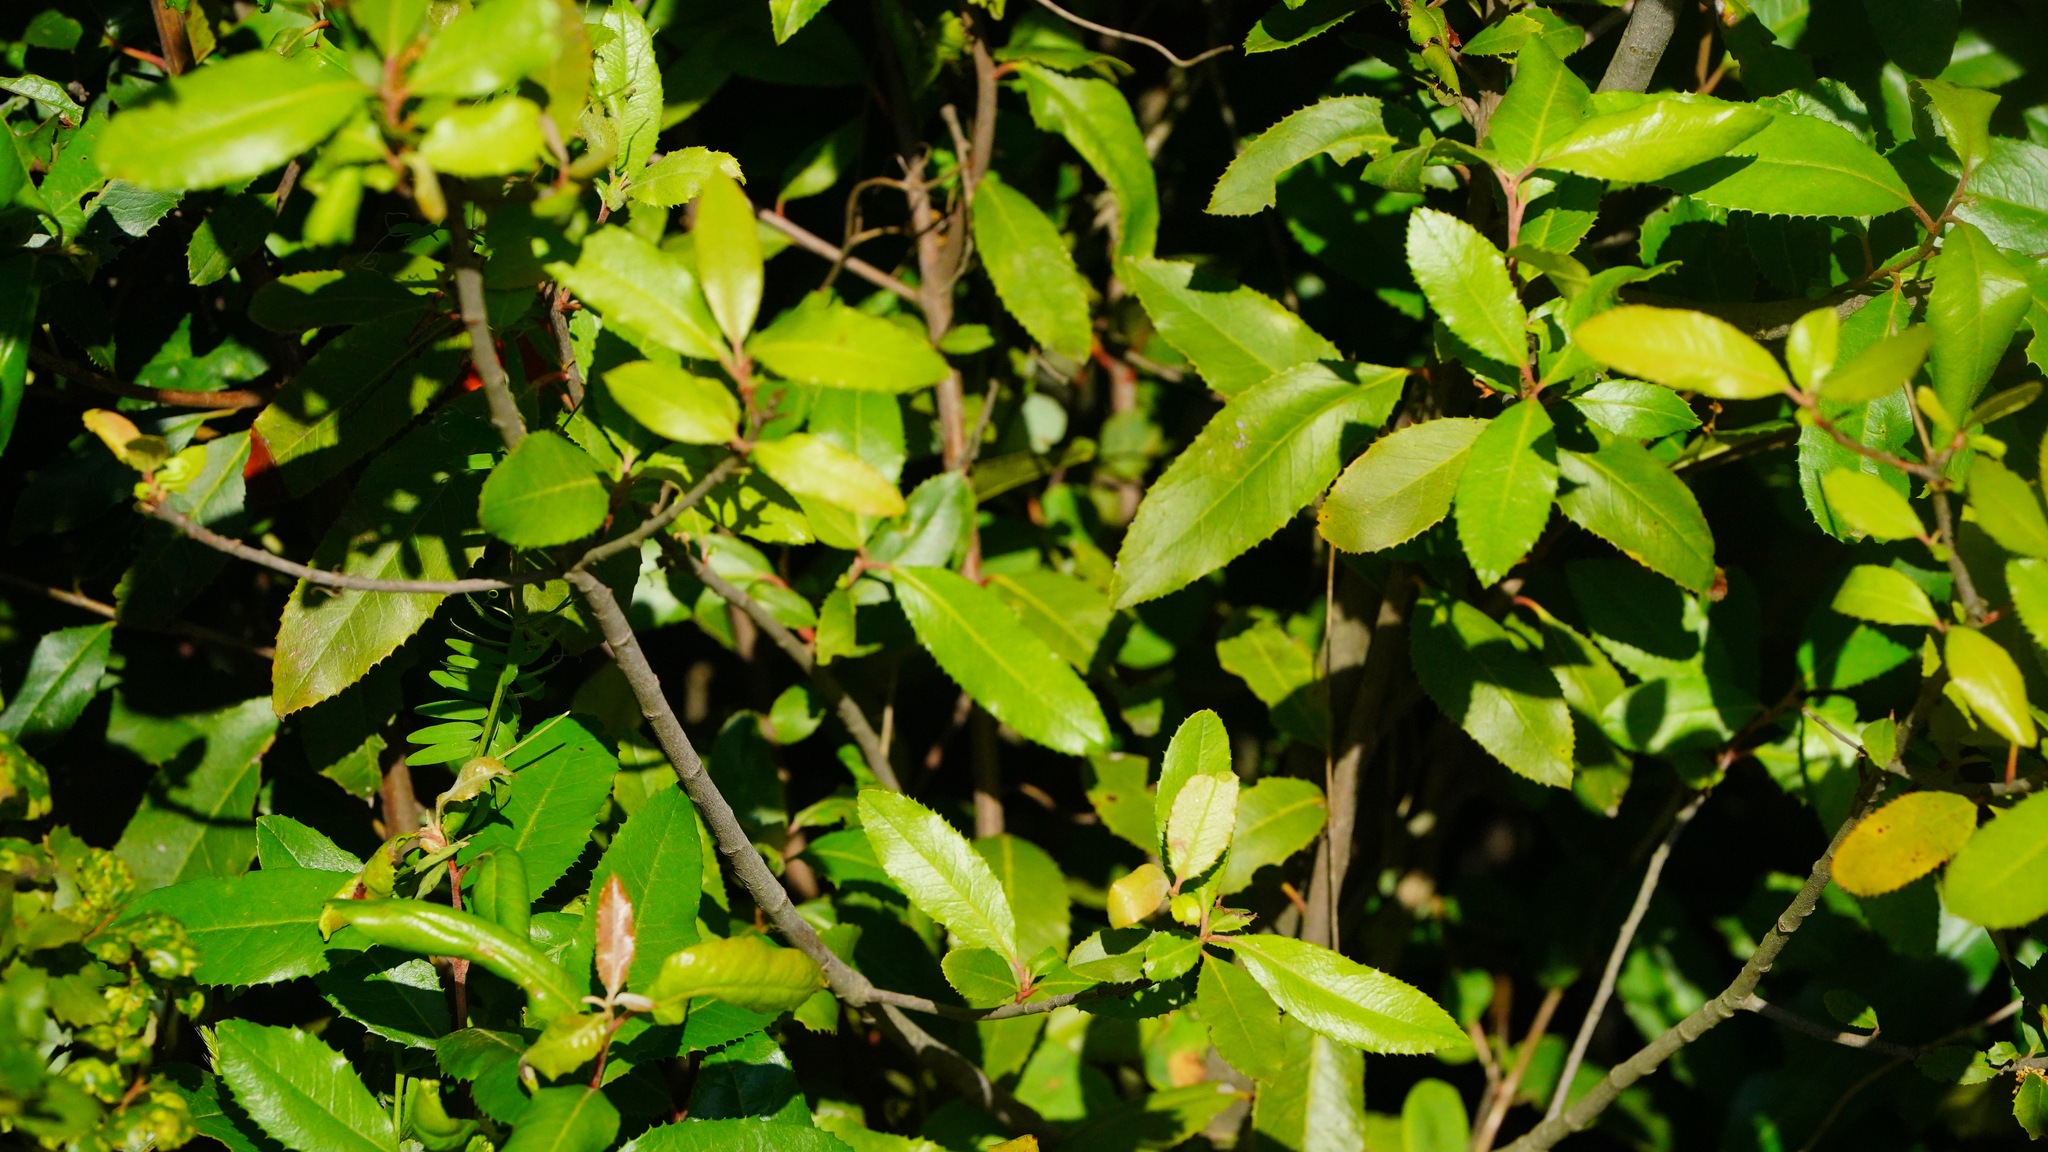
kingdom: Plantae
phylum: Tracheophyta
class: Magnoliopsida
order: Rosales
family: Rosaceae
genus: Heteromeles
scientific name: Heteromeles arbutifolia
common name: California-holly
